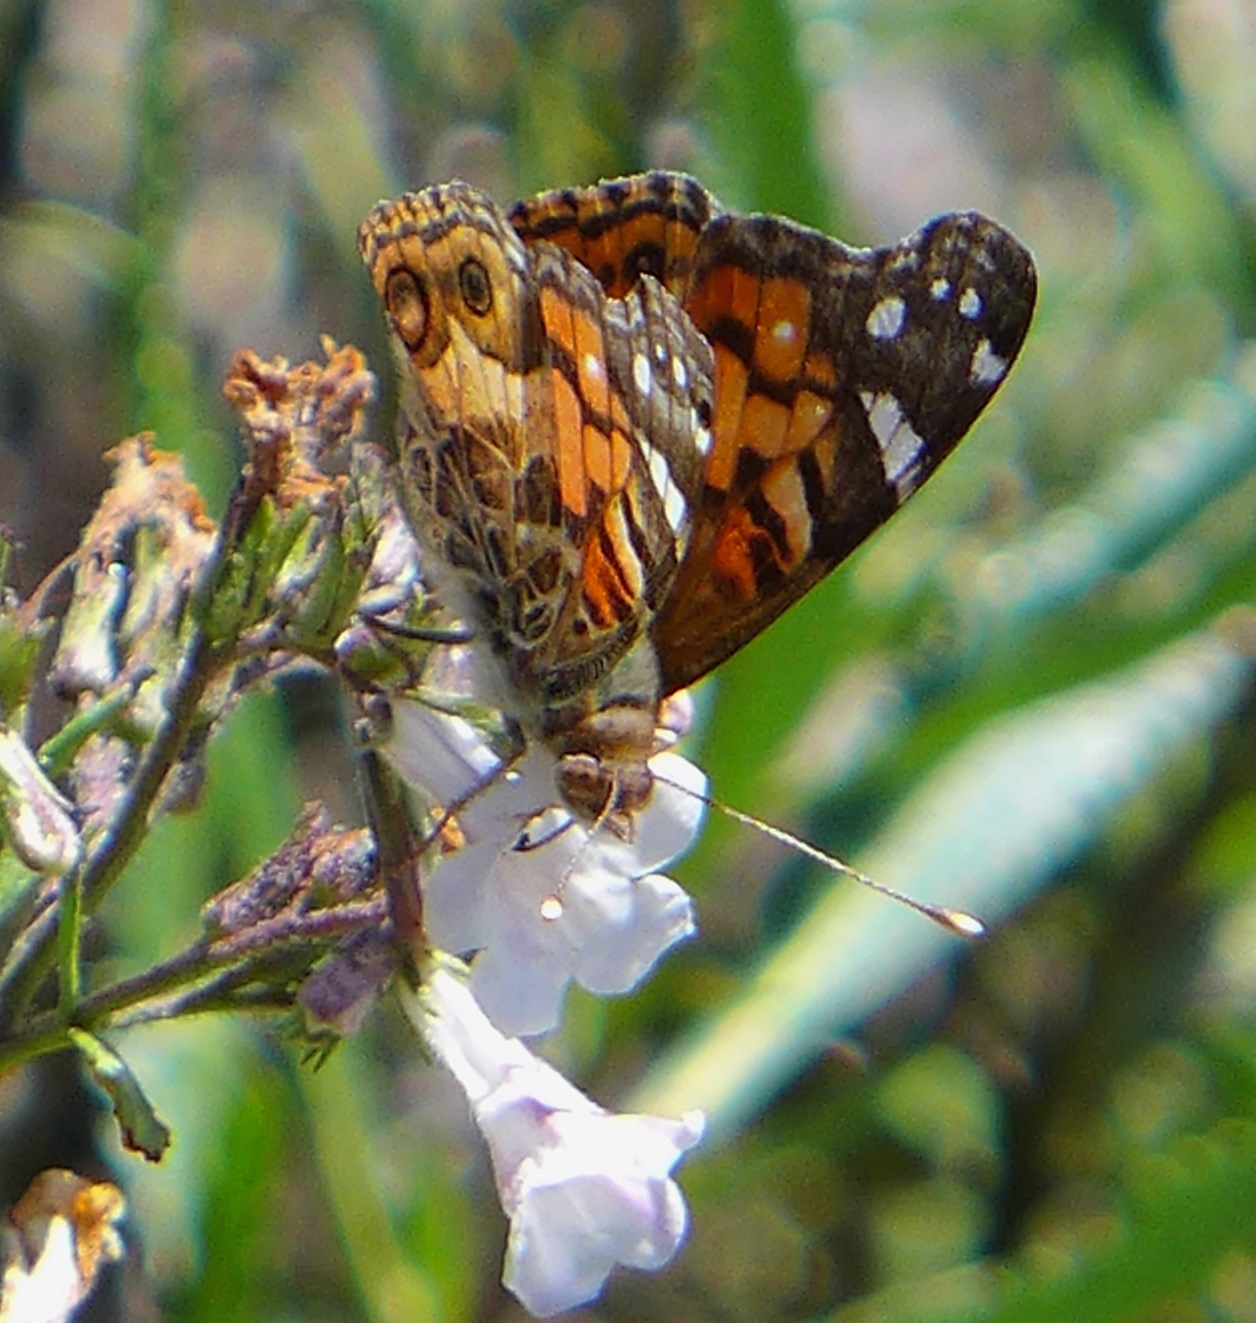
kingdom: Animalia
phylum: Arthropoda
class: Insecta
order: Lepidoptera
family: Nymphalidae
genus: Vanessa
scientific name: Vanessa virginiensis
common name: American lady
